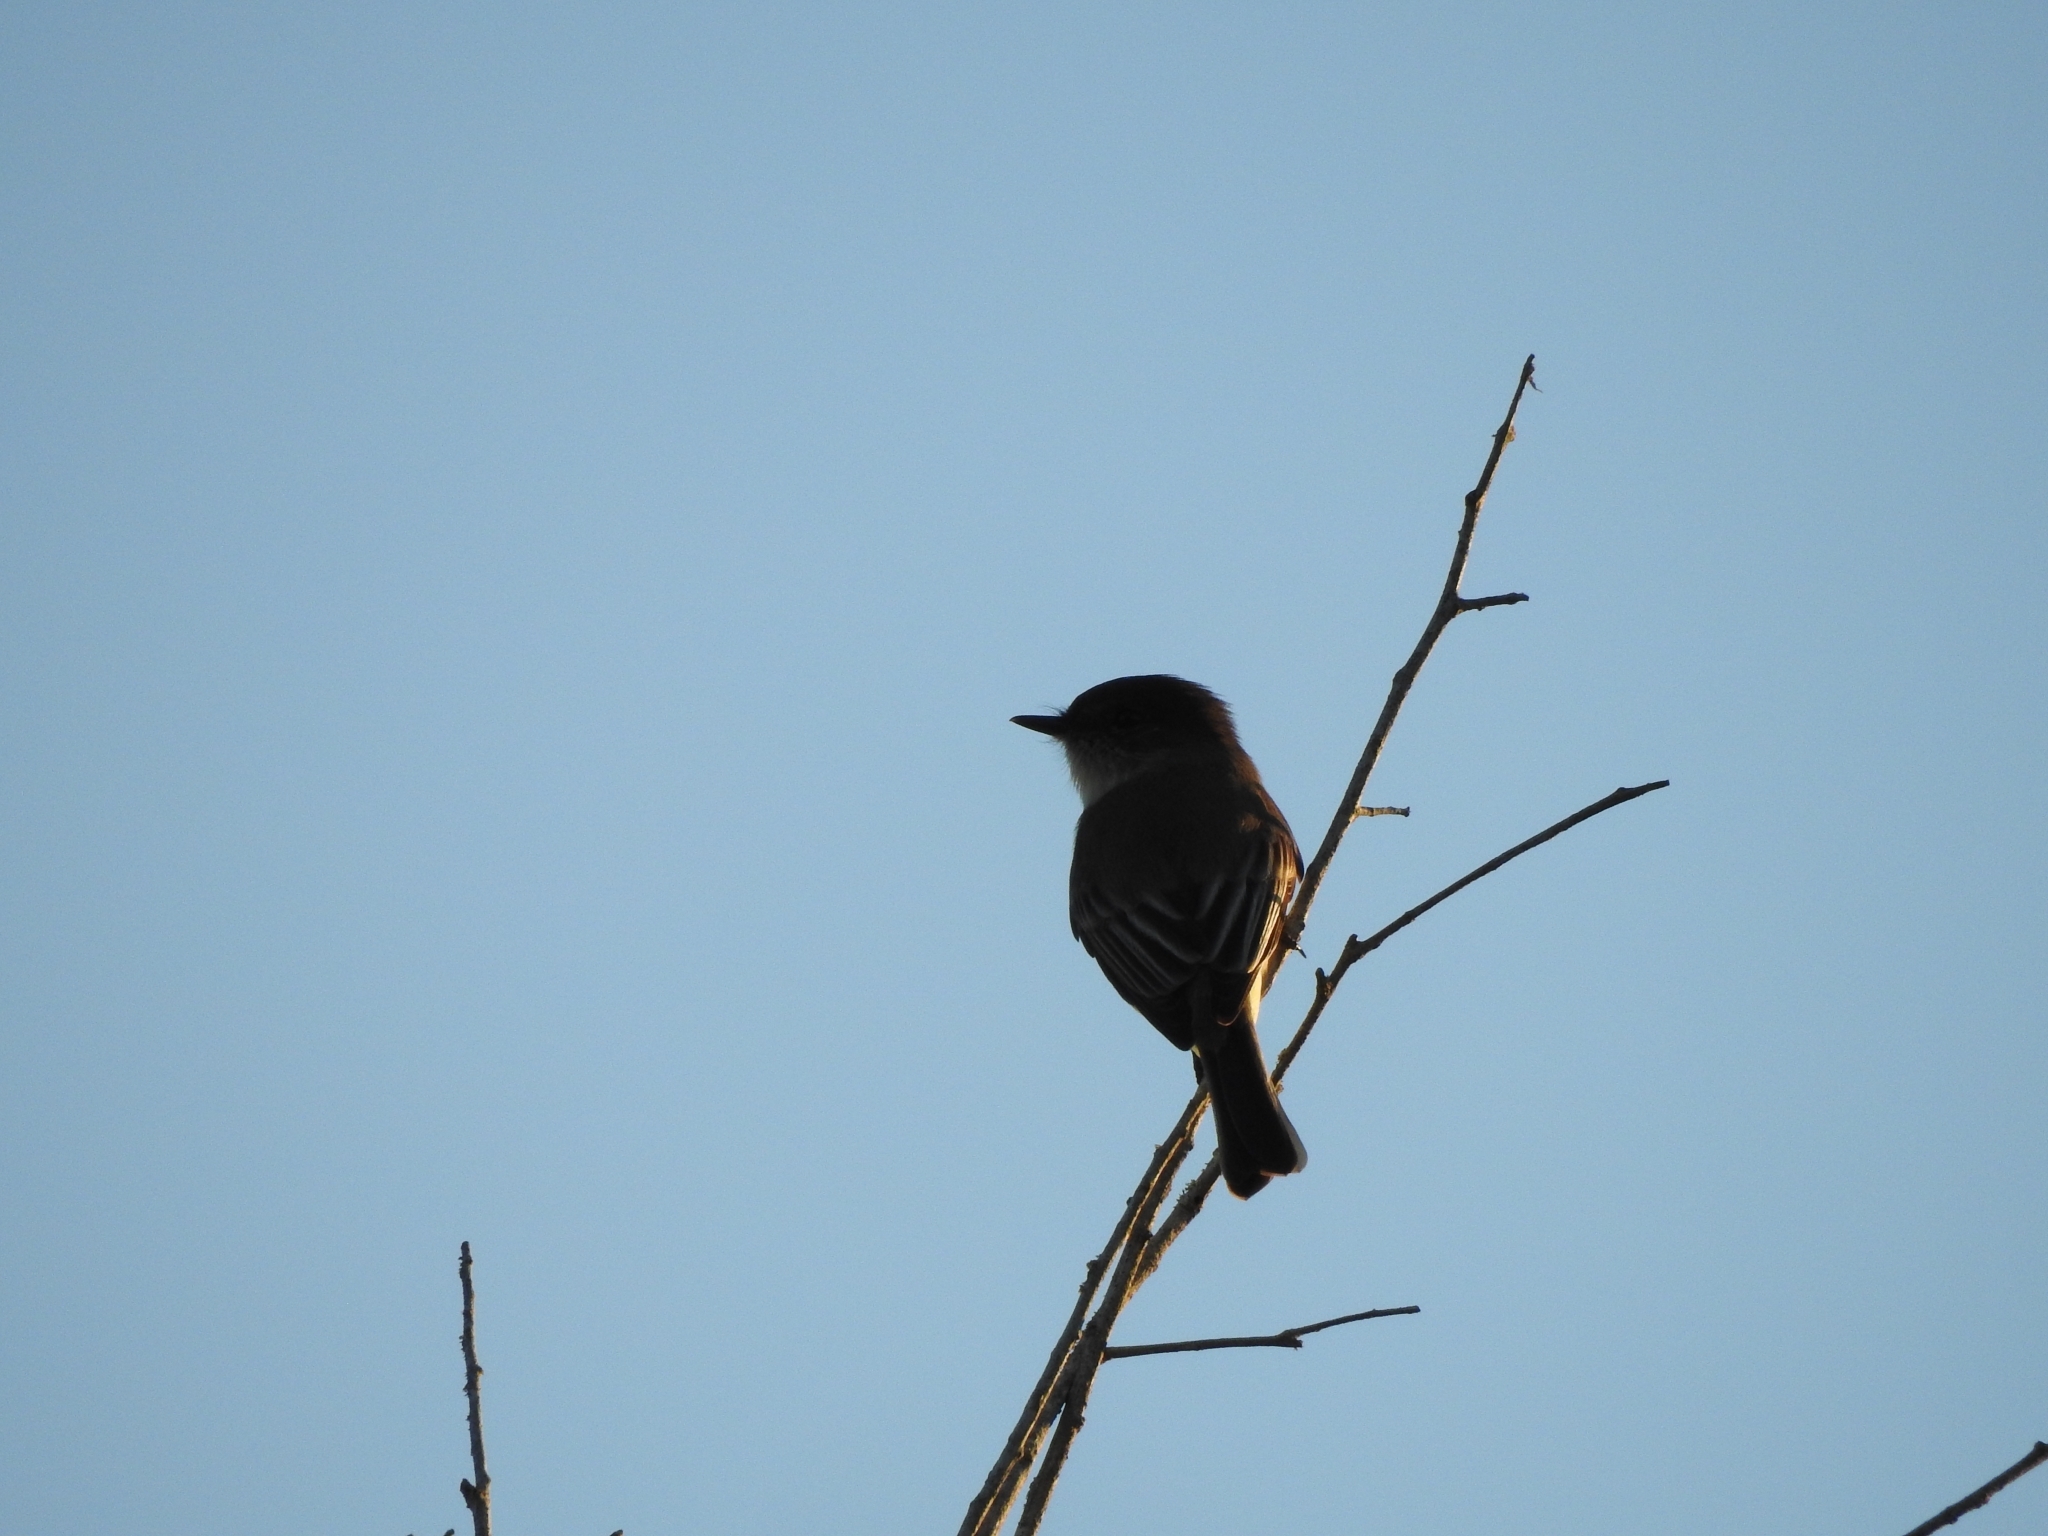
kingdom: Animalia
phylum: Chordata
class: Aves
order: Passeriformes
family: Tyrannidae
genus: Sayornis
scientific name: Sayornis phoebe
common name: Eastern phoebe
